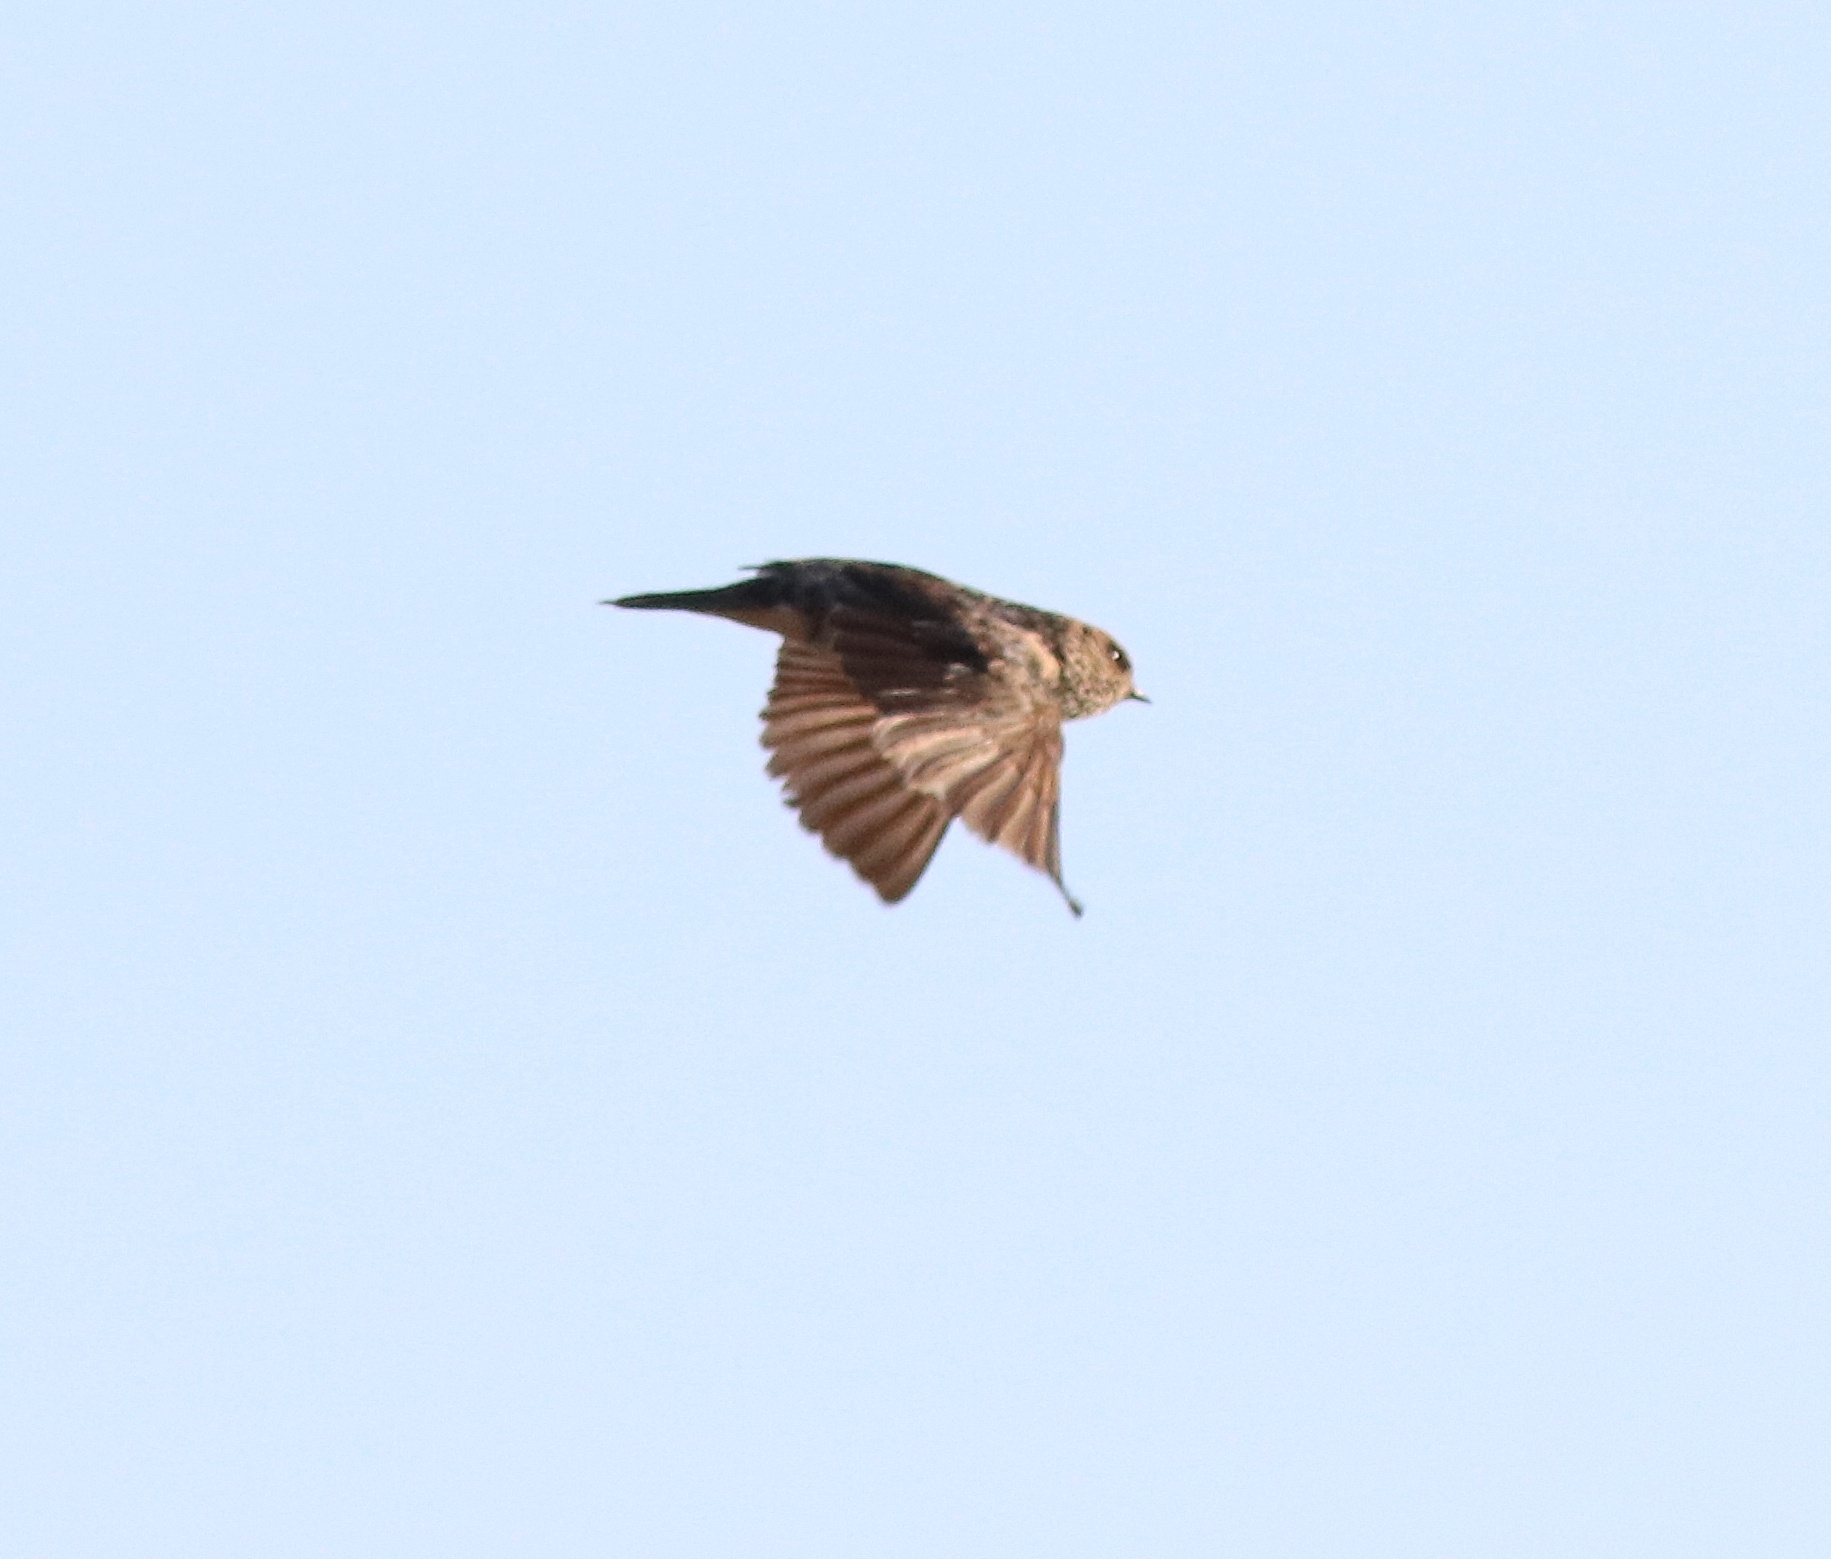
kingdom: Animalia
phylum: Chordata
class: Aves
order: Passeriformes
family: Hirundinidae
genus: Petrochelidon
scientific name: Petrochelidon fluvicola
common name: Streak-throated swallow
